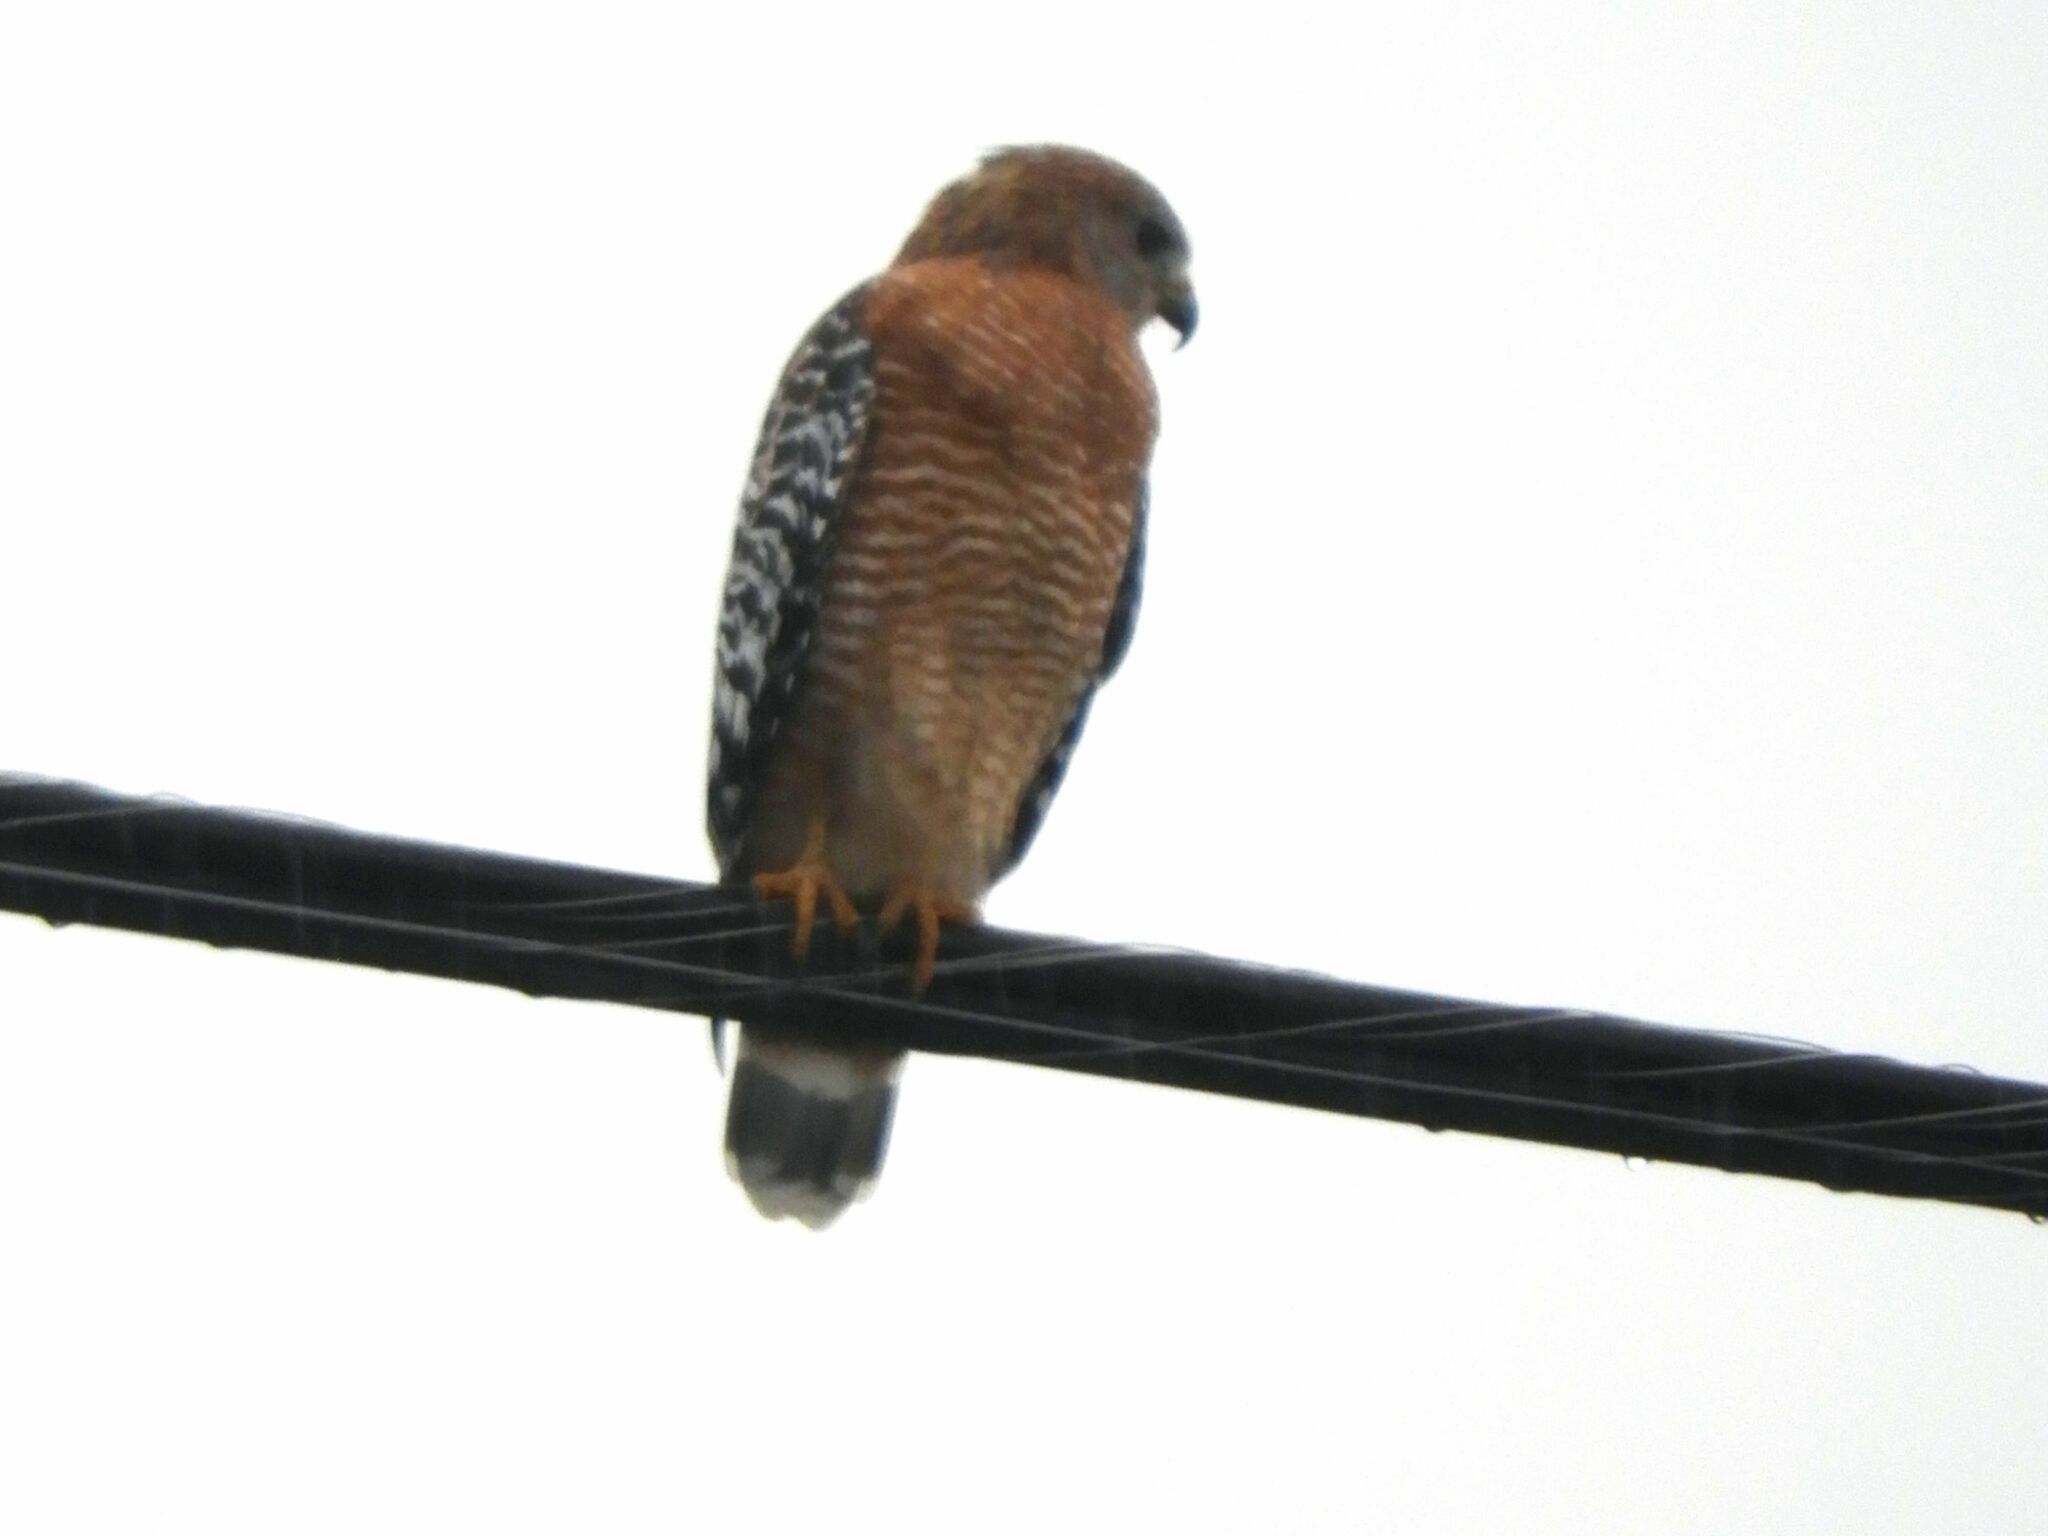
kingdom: Animalia
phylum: Chordata
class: Aves
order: Accipitriformes
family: Accipitridae
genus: Buteo
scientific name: Buteo lineatus
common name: Red-shouldered hawk
